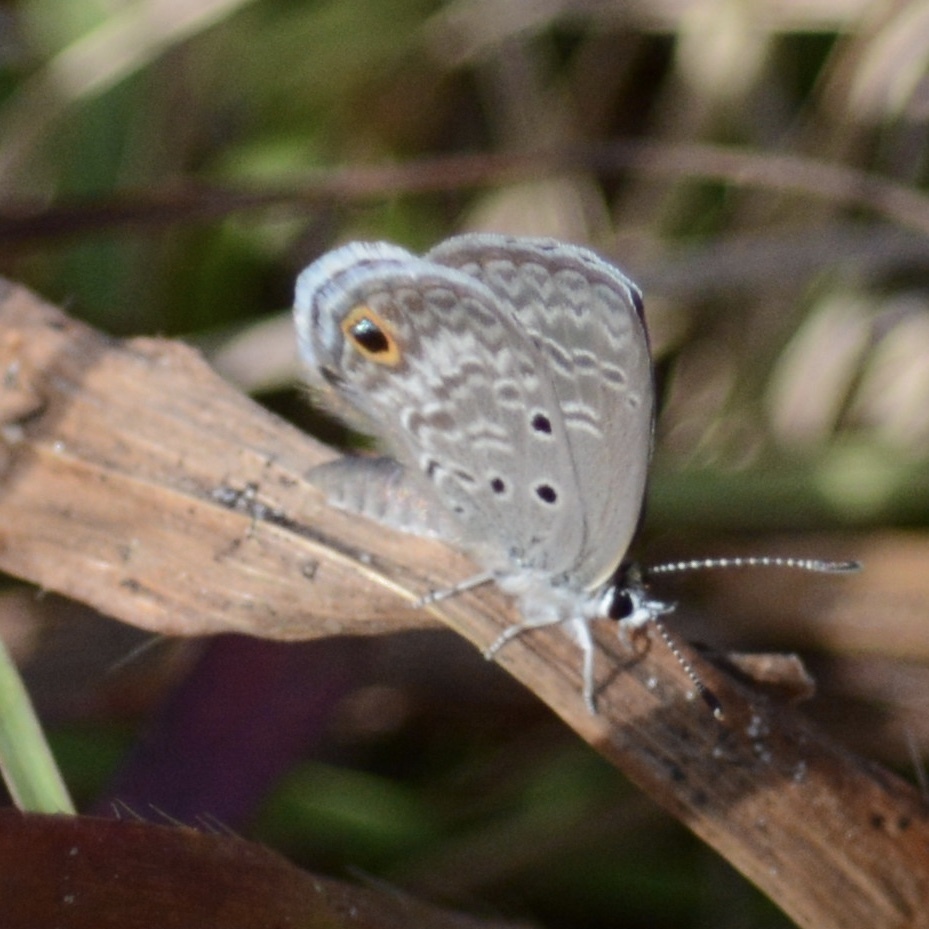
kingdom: Animalia
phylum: Arthropoda
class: Insecta
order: Lepidoptera
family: Lycaenidae
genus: Hemiargus
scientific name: Hemiargus ceraunus
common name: Ceraunus blue
